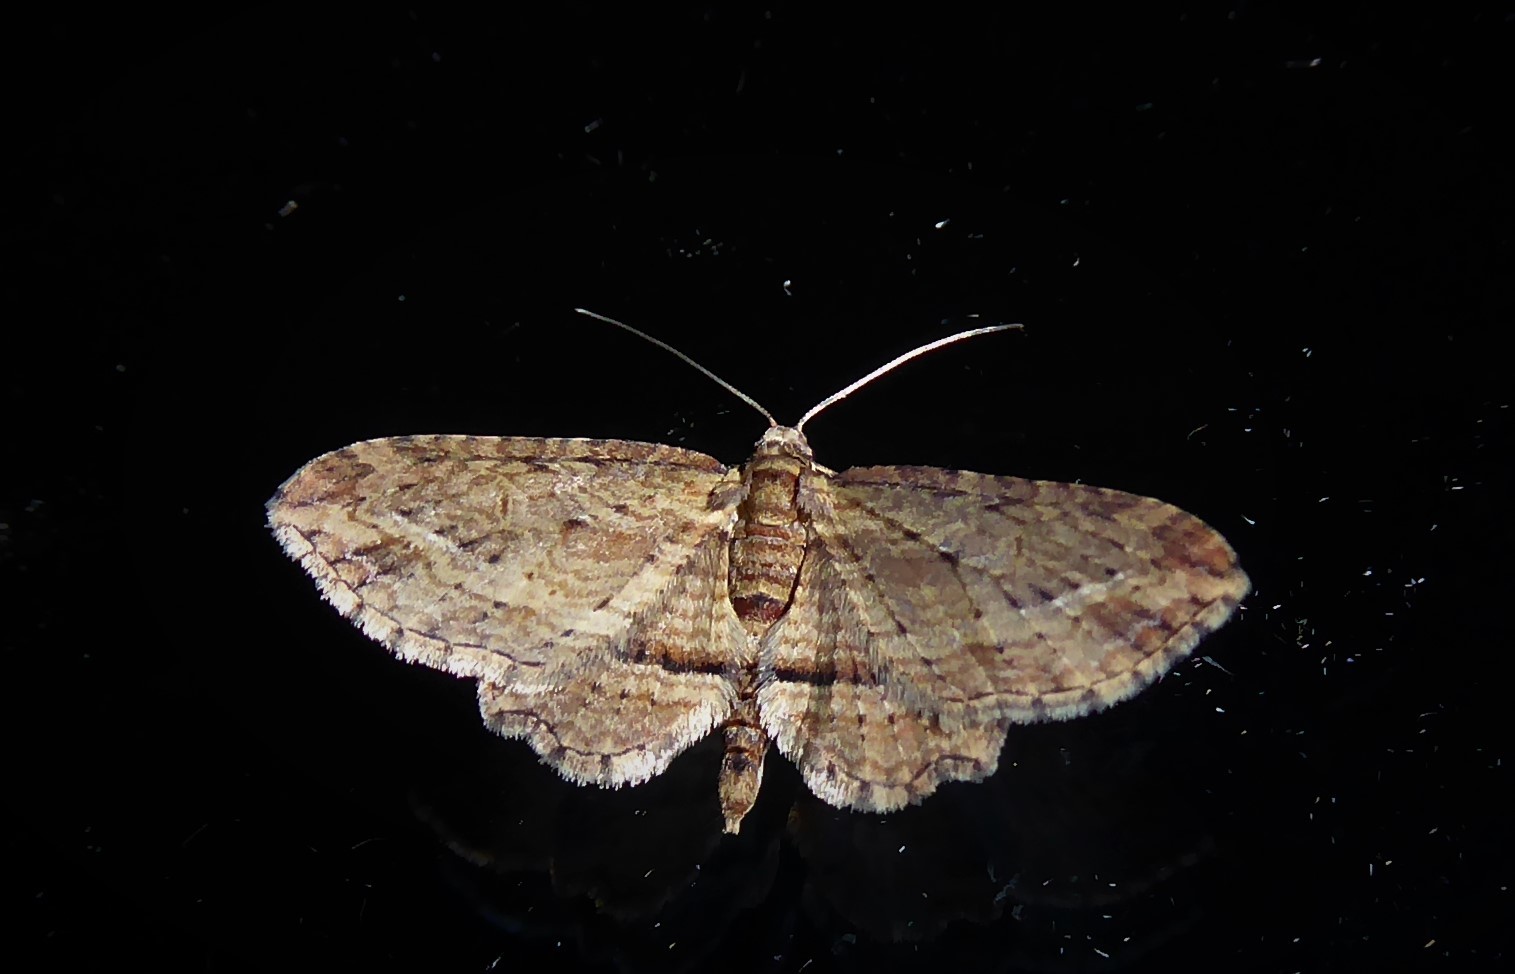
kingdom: Animalia
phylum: Arthropoda
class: Insecta
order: Lepidoptera
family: Geometridae
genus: Chloroclystis
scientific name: Chloroclystis filata
